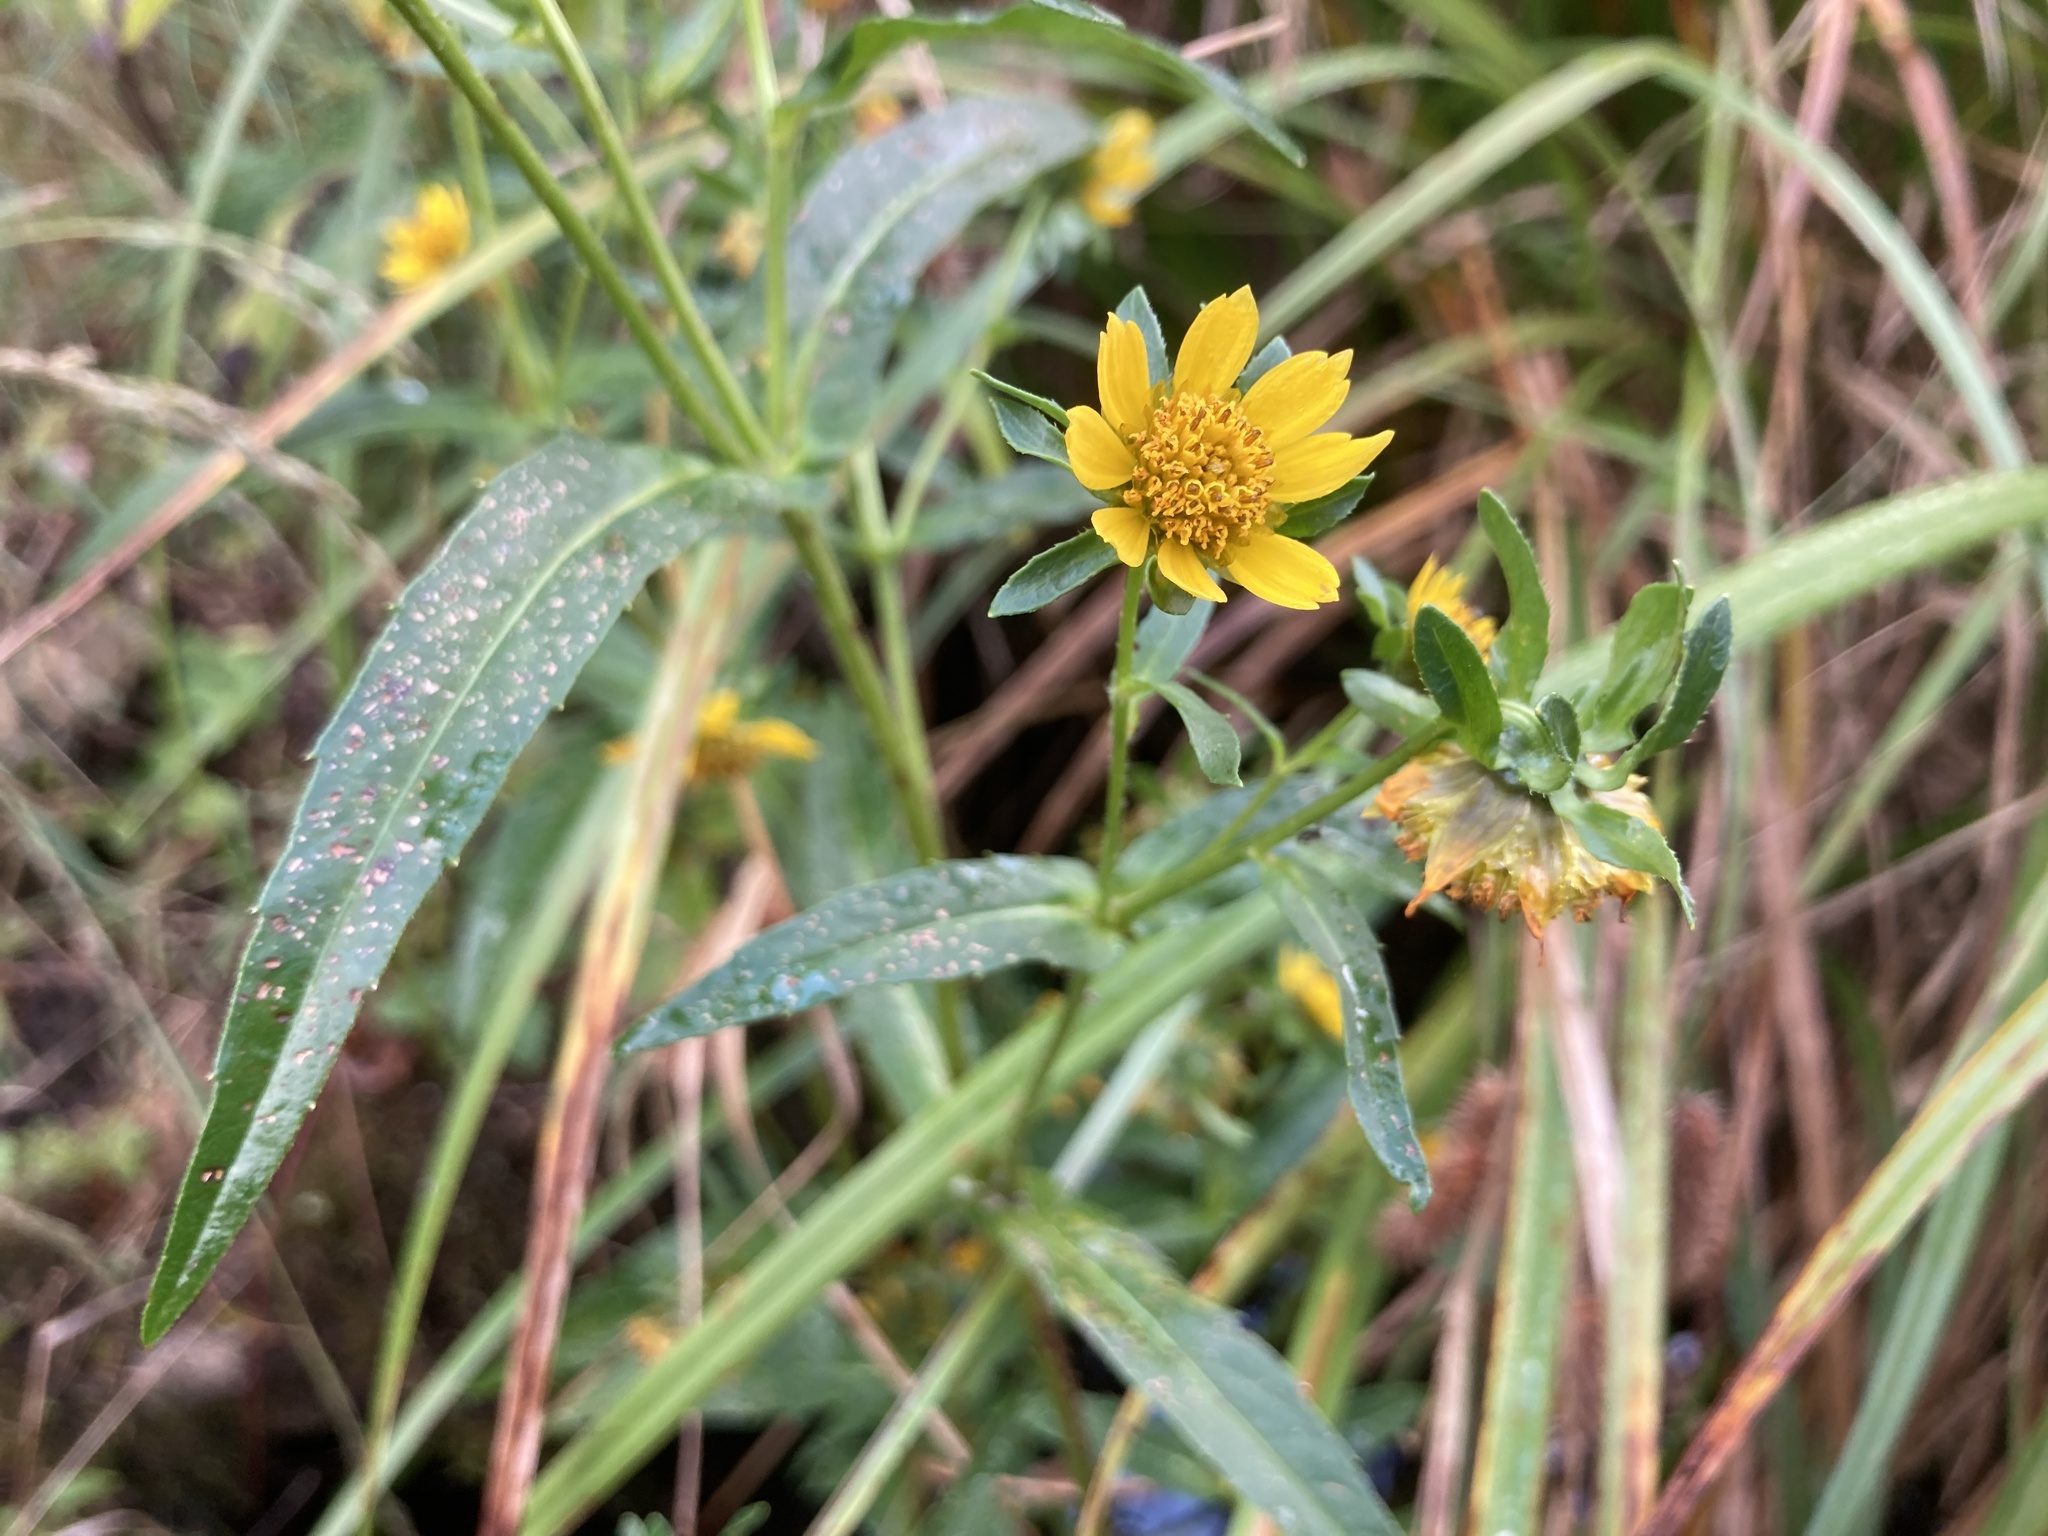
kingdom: Plantae
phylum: Tracheophyta
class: Magnoliopsida
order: Asterales
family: Asteraceae
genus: Bidens
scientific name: Bidens cernua
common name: Nodding bur-marigold
